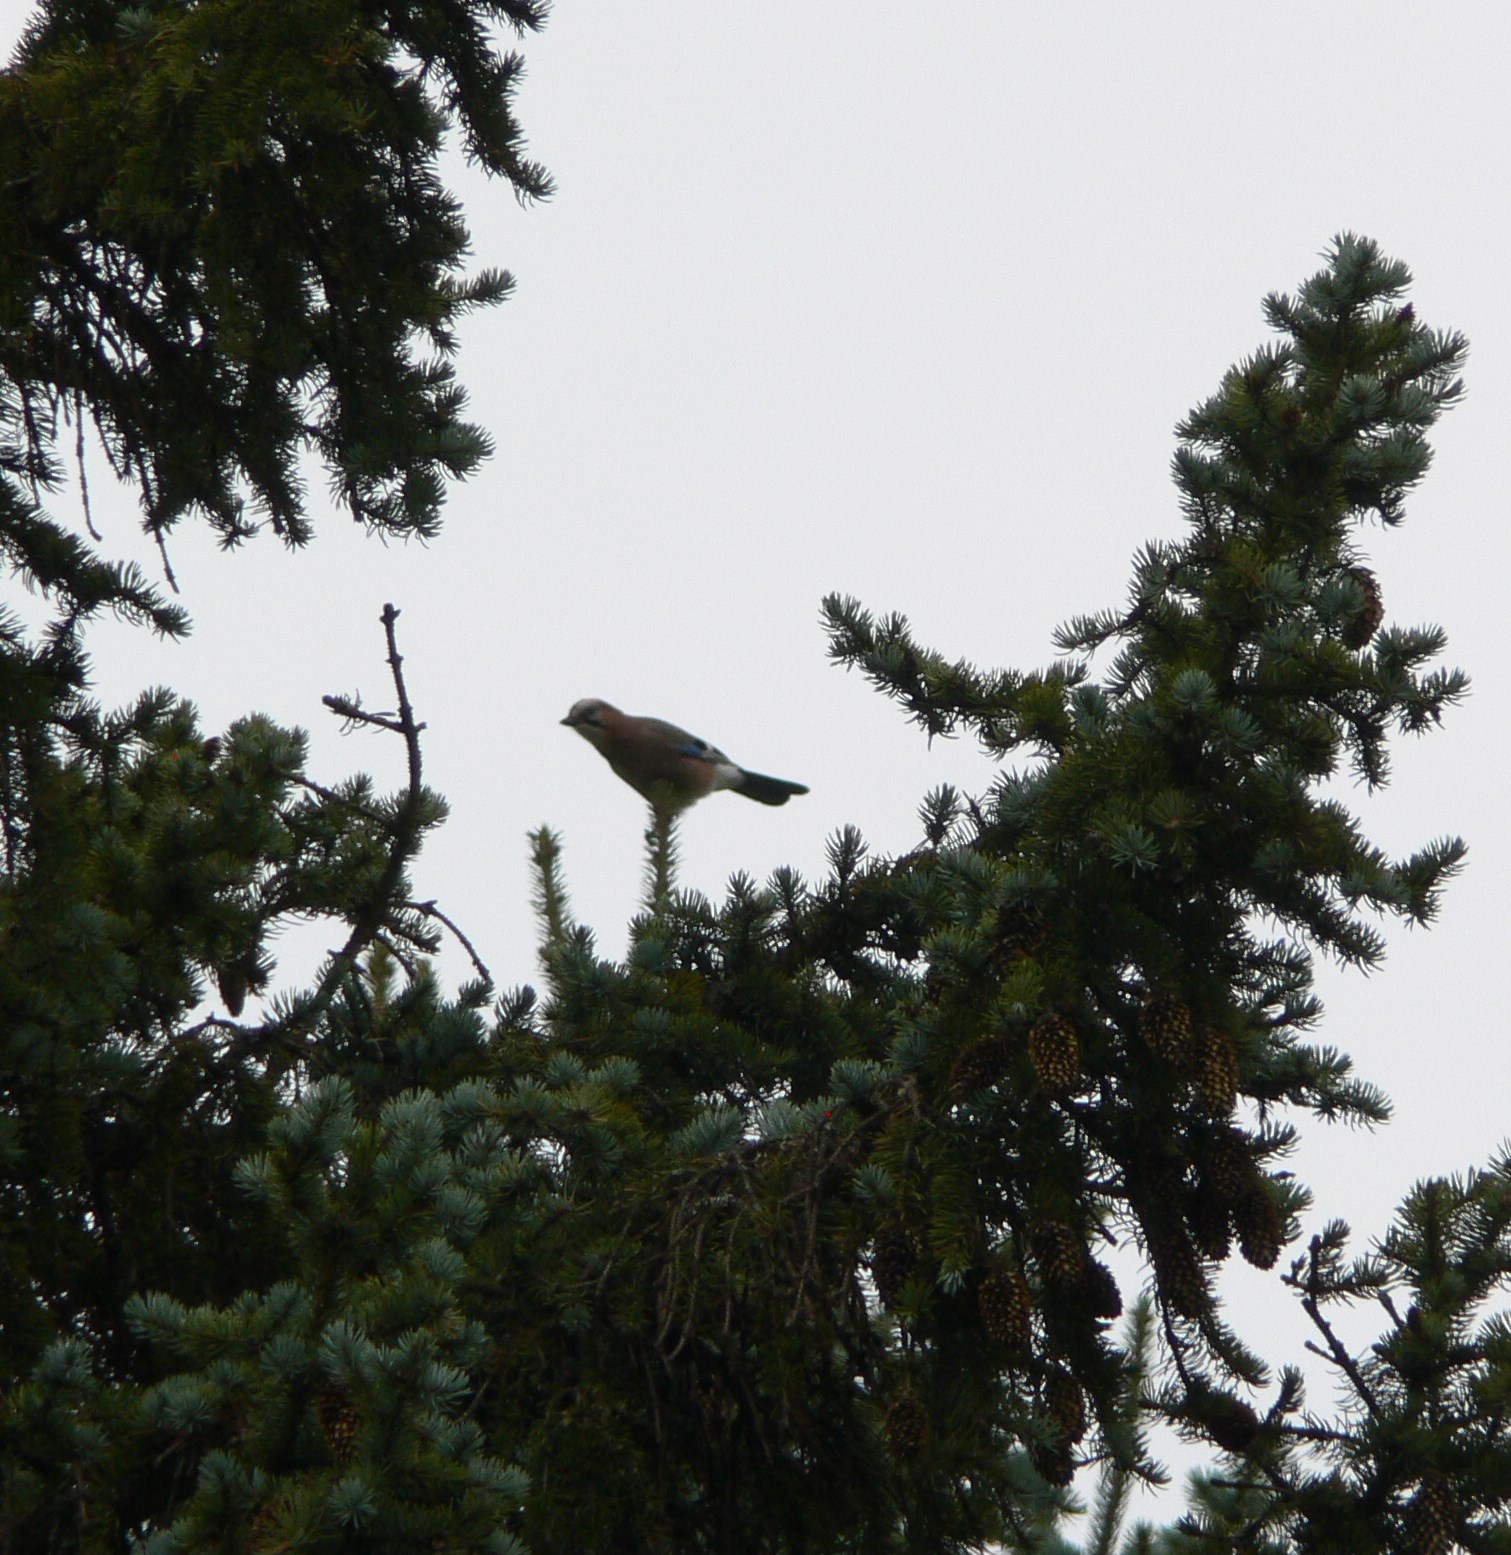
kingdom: Animalia
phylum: Chordata
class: Aves
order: Passeriformes
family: Corvidae
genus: Garrulus
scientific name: Garrulus glandarius
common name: Eurasian jay
